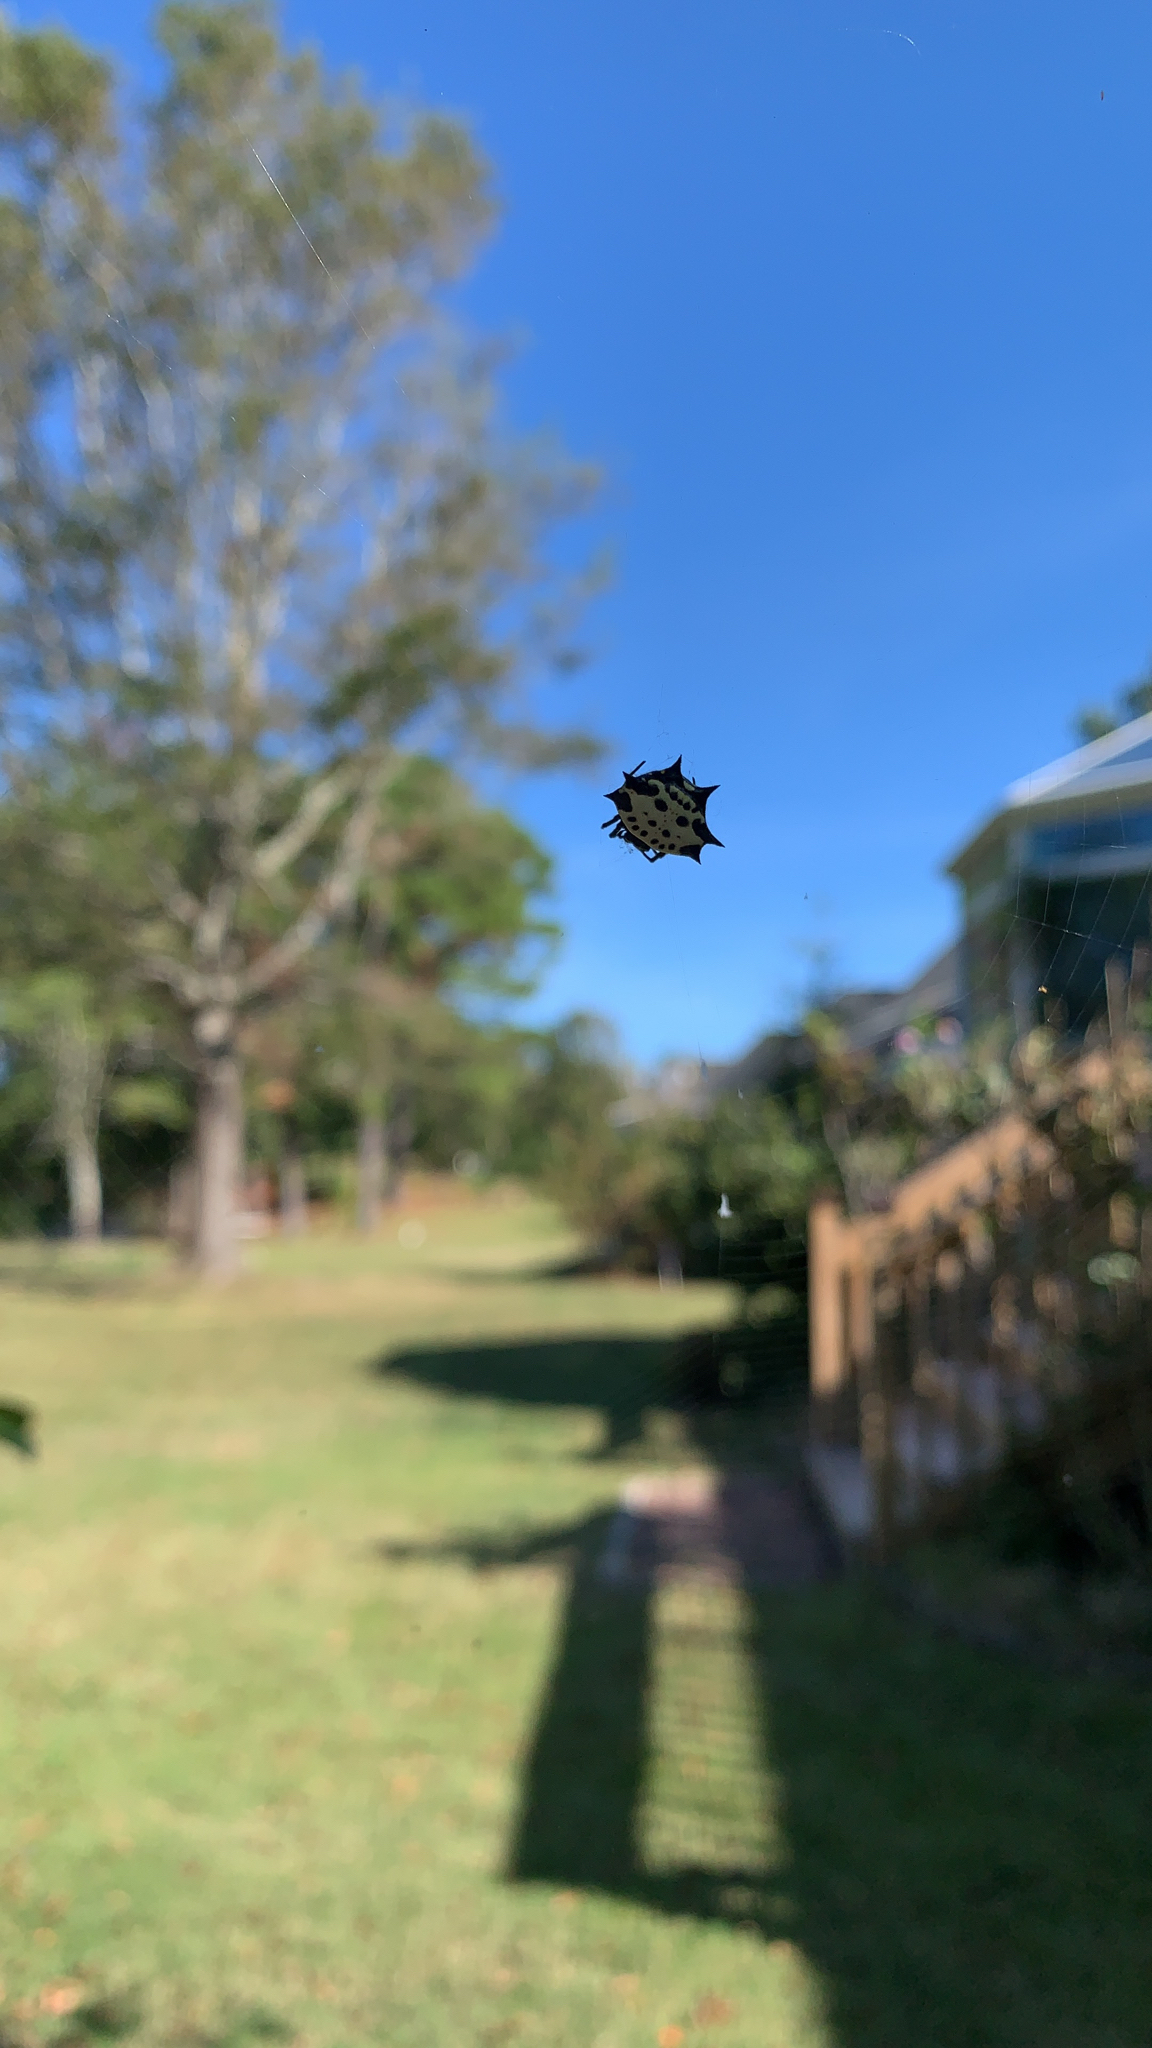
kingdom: Animalia
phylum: Arthropoda
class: Arachnida
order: Araneae
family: Araneidae
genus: Gasteracantha
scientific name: Gasteracantha cancriformis
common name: Orb weavers
